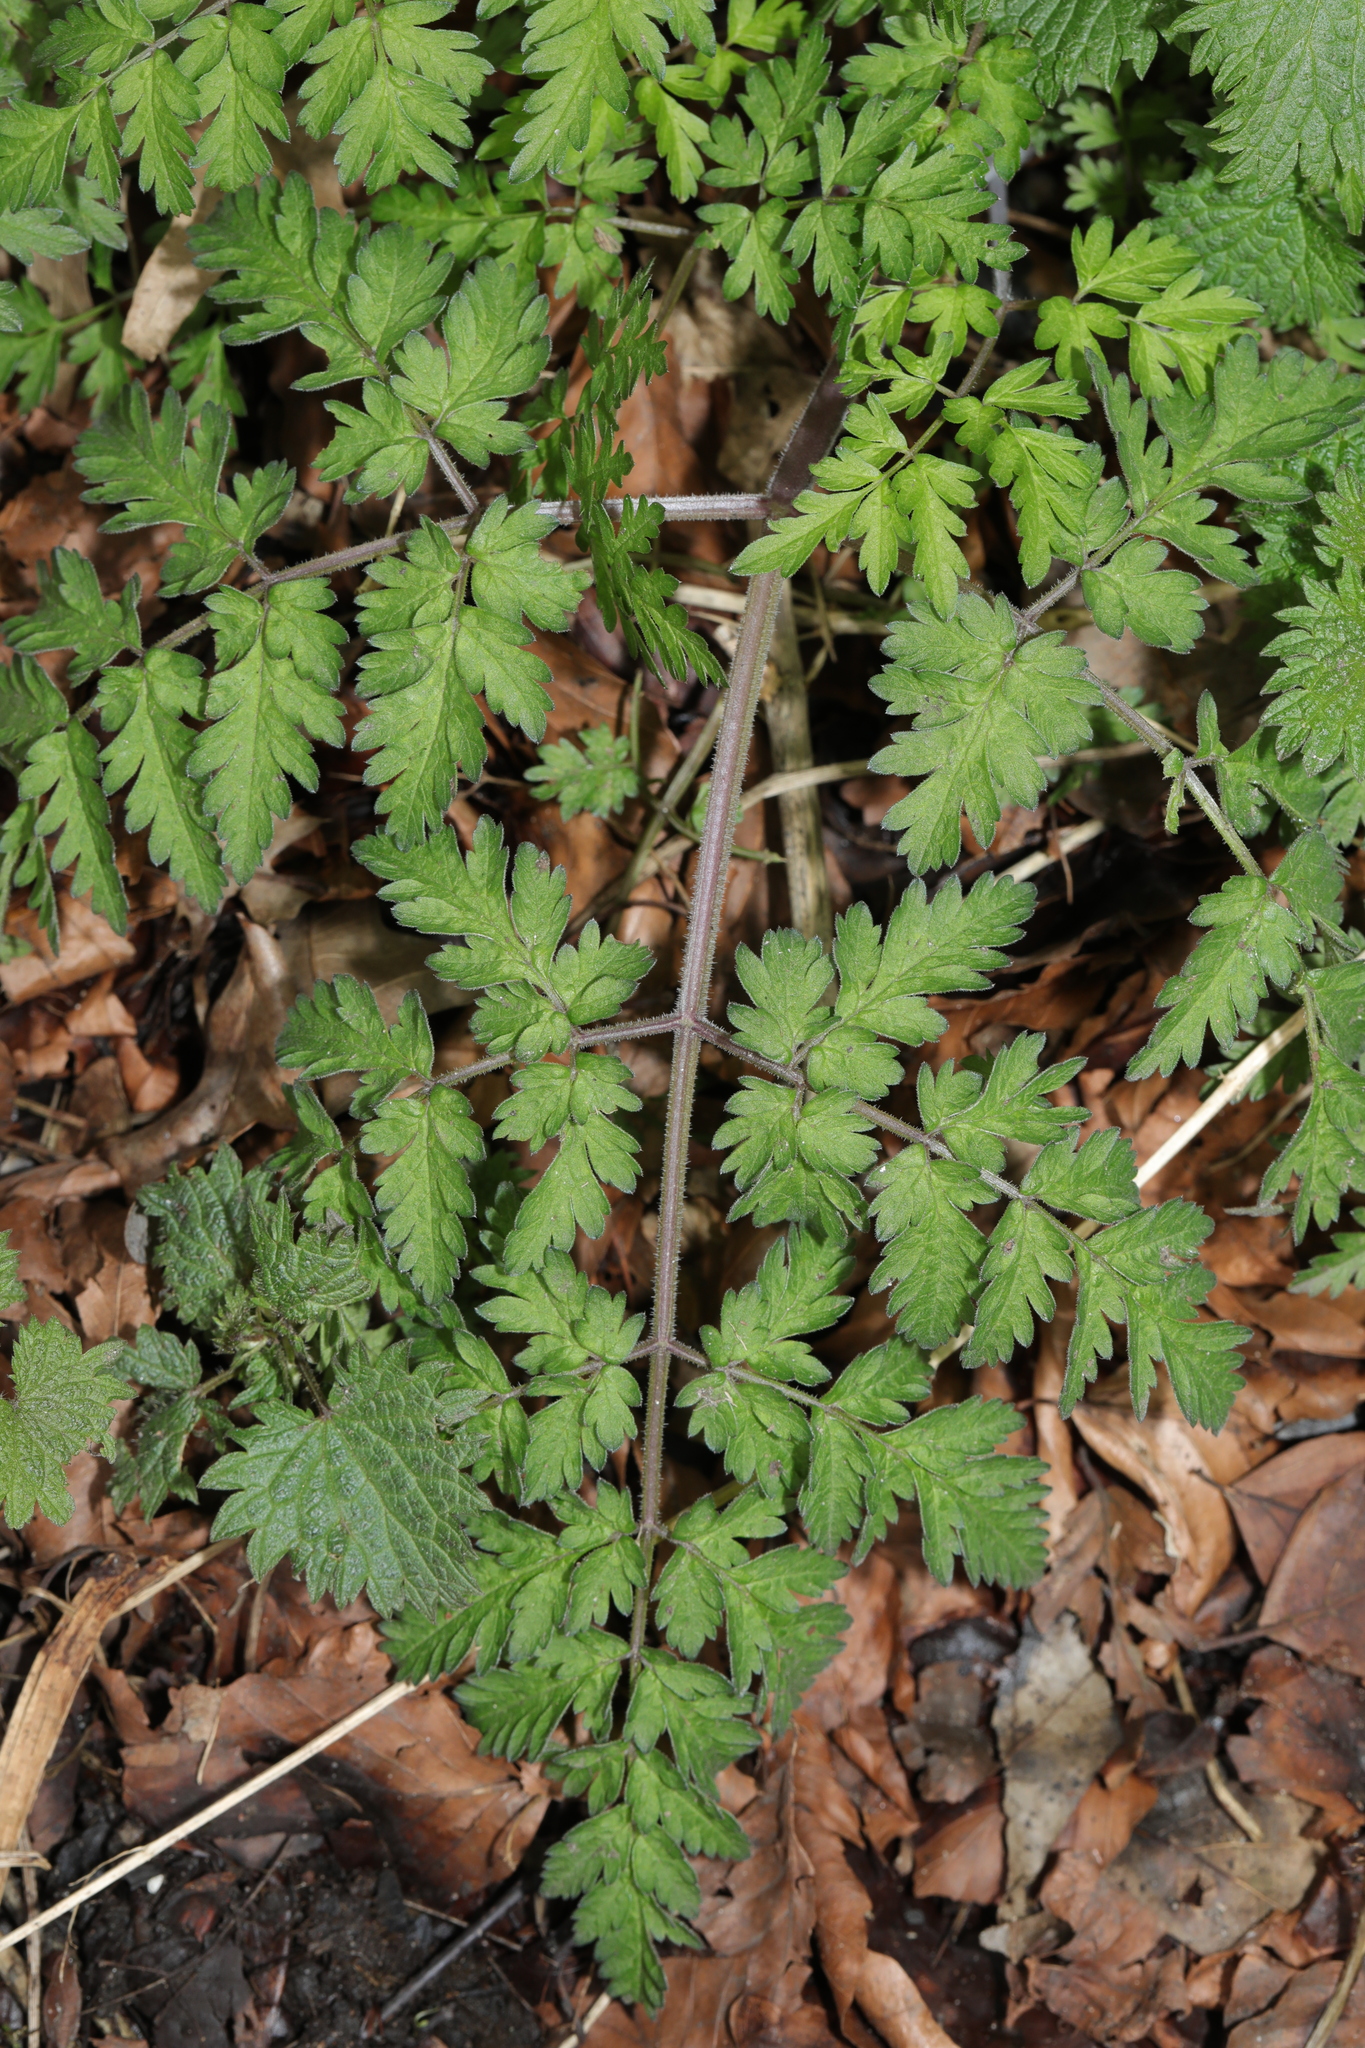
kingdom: Plantae
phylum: Tracheophyta
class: Magnoliopsida
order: Apiales
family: Apiaceae
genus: Anthriscus
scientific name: Anthriscus sylvestris
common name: Cow parsley
